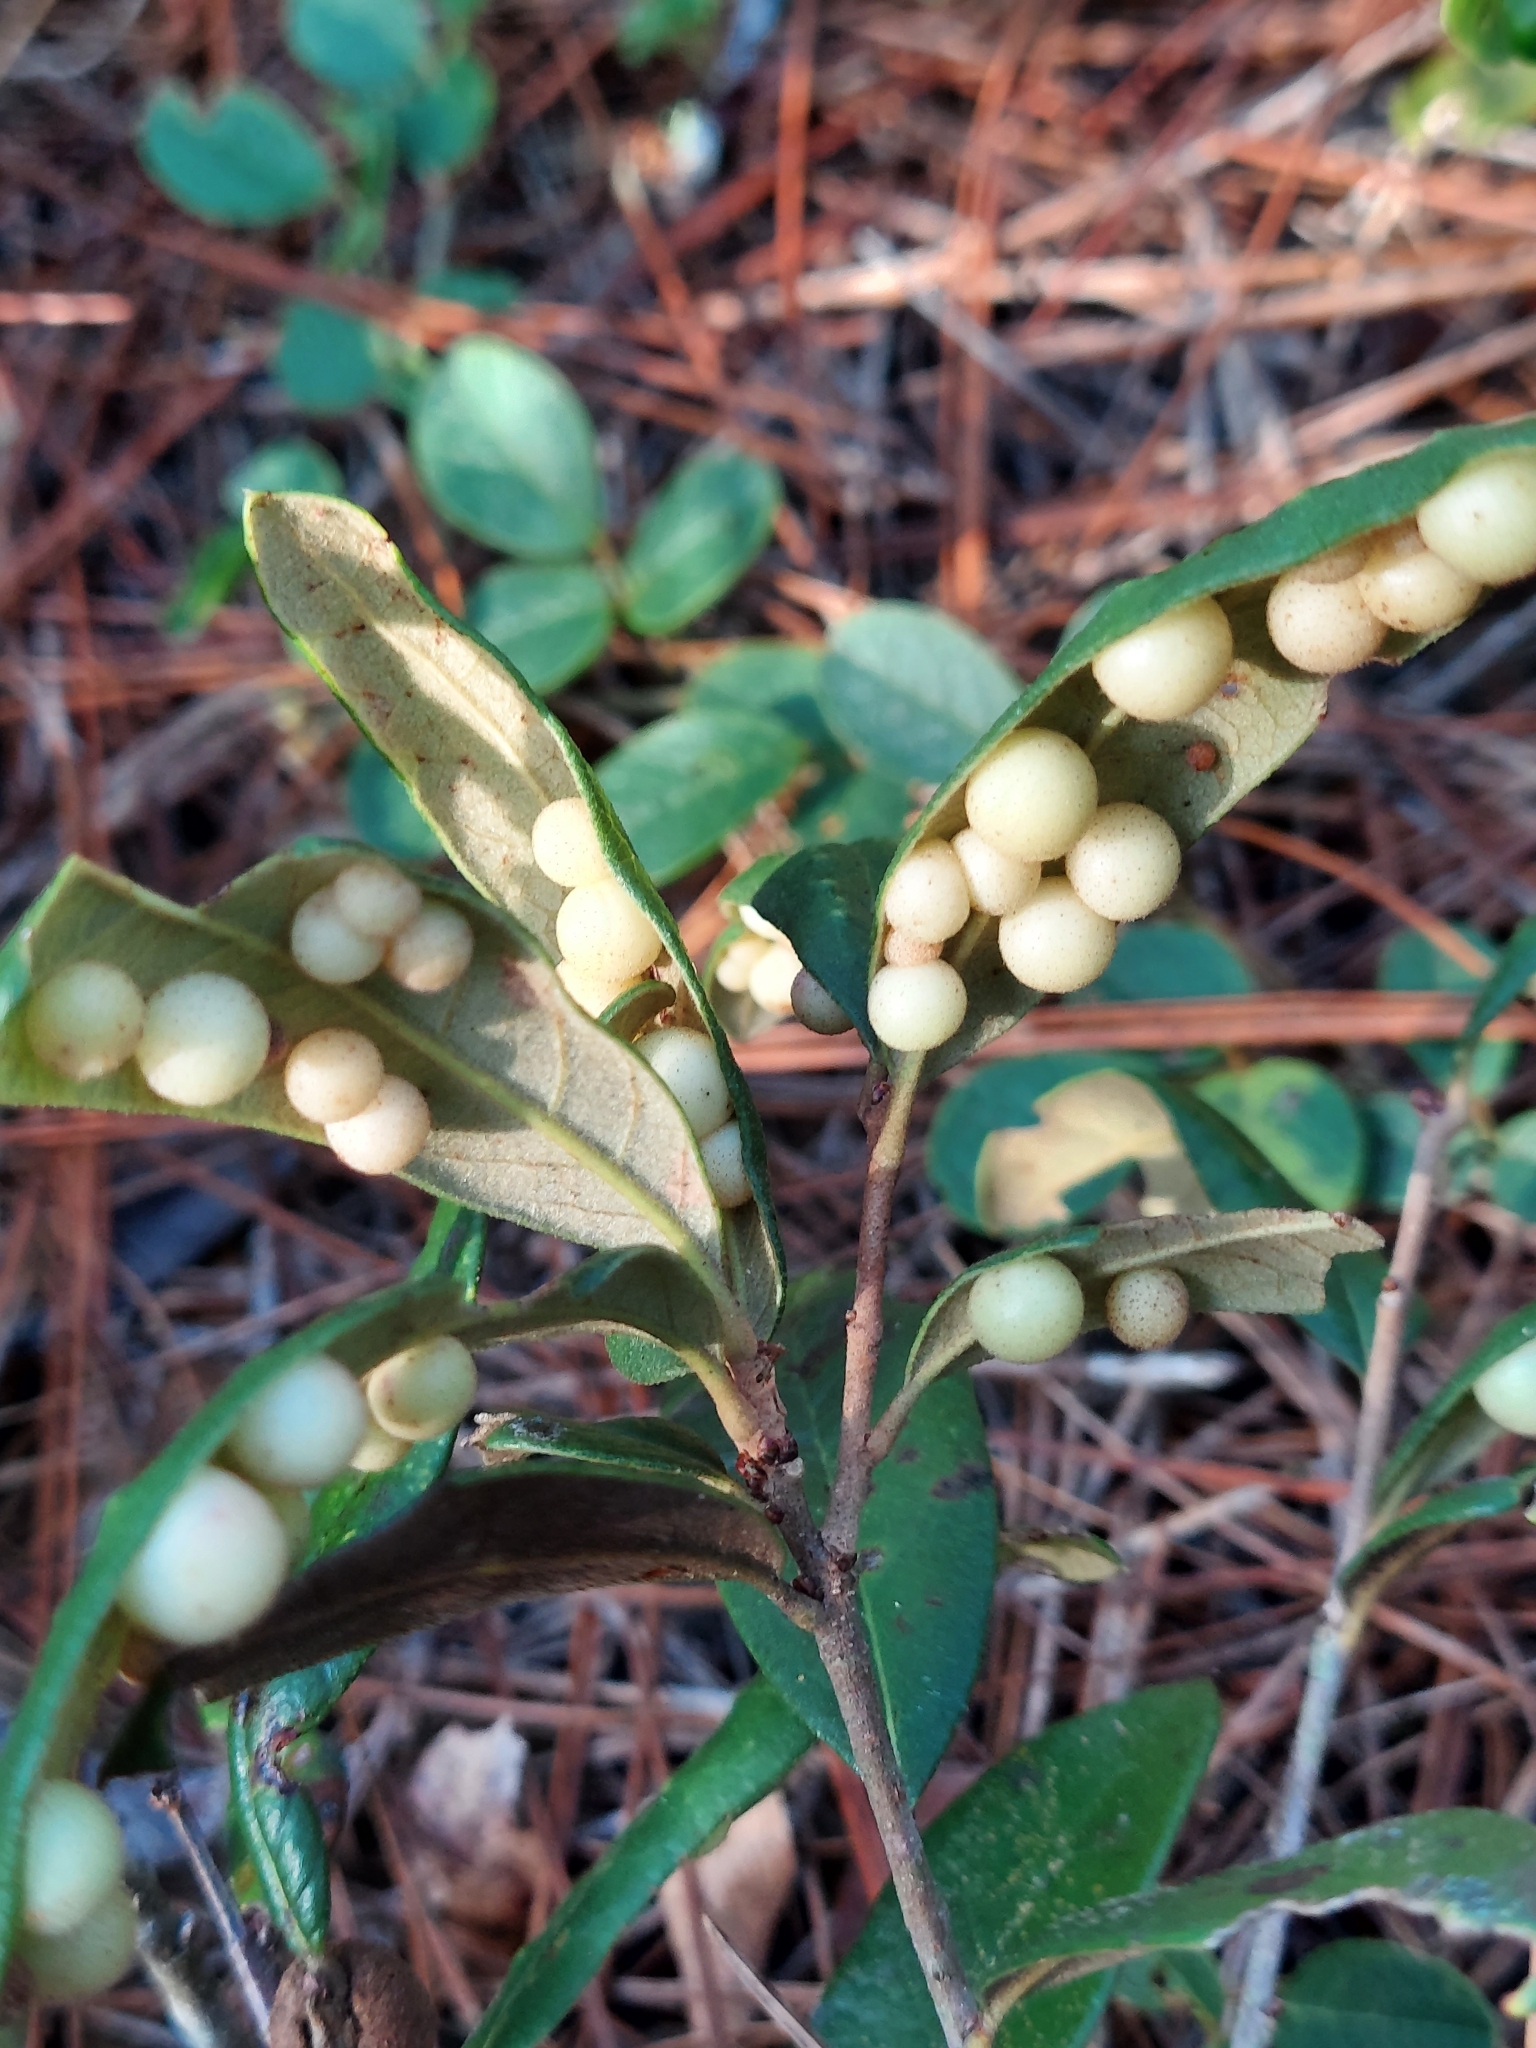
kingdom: Animalia
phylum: Arthropoda
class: Insecta
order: Hymenoptera
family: Cynipidae
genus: Belonocnema
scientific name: Belonocnema treatae
